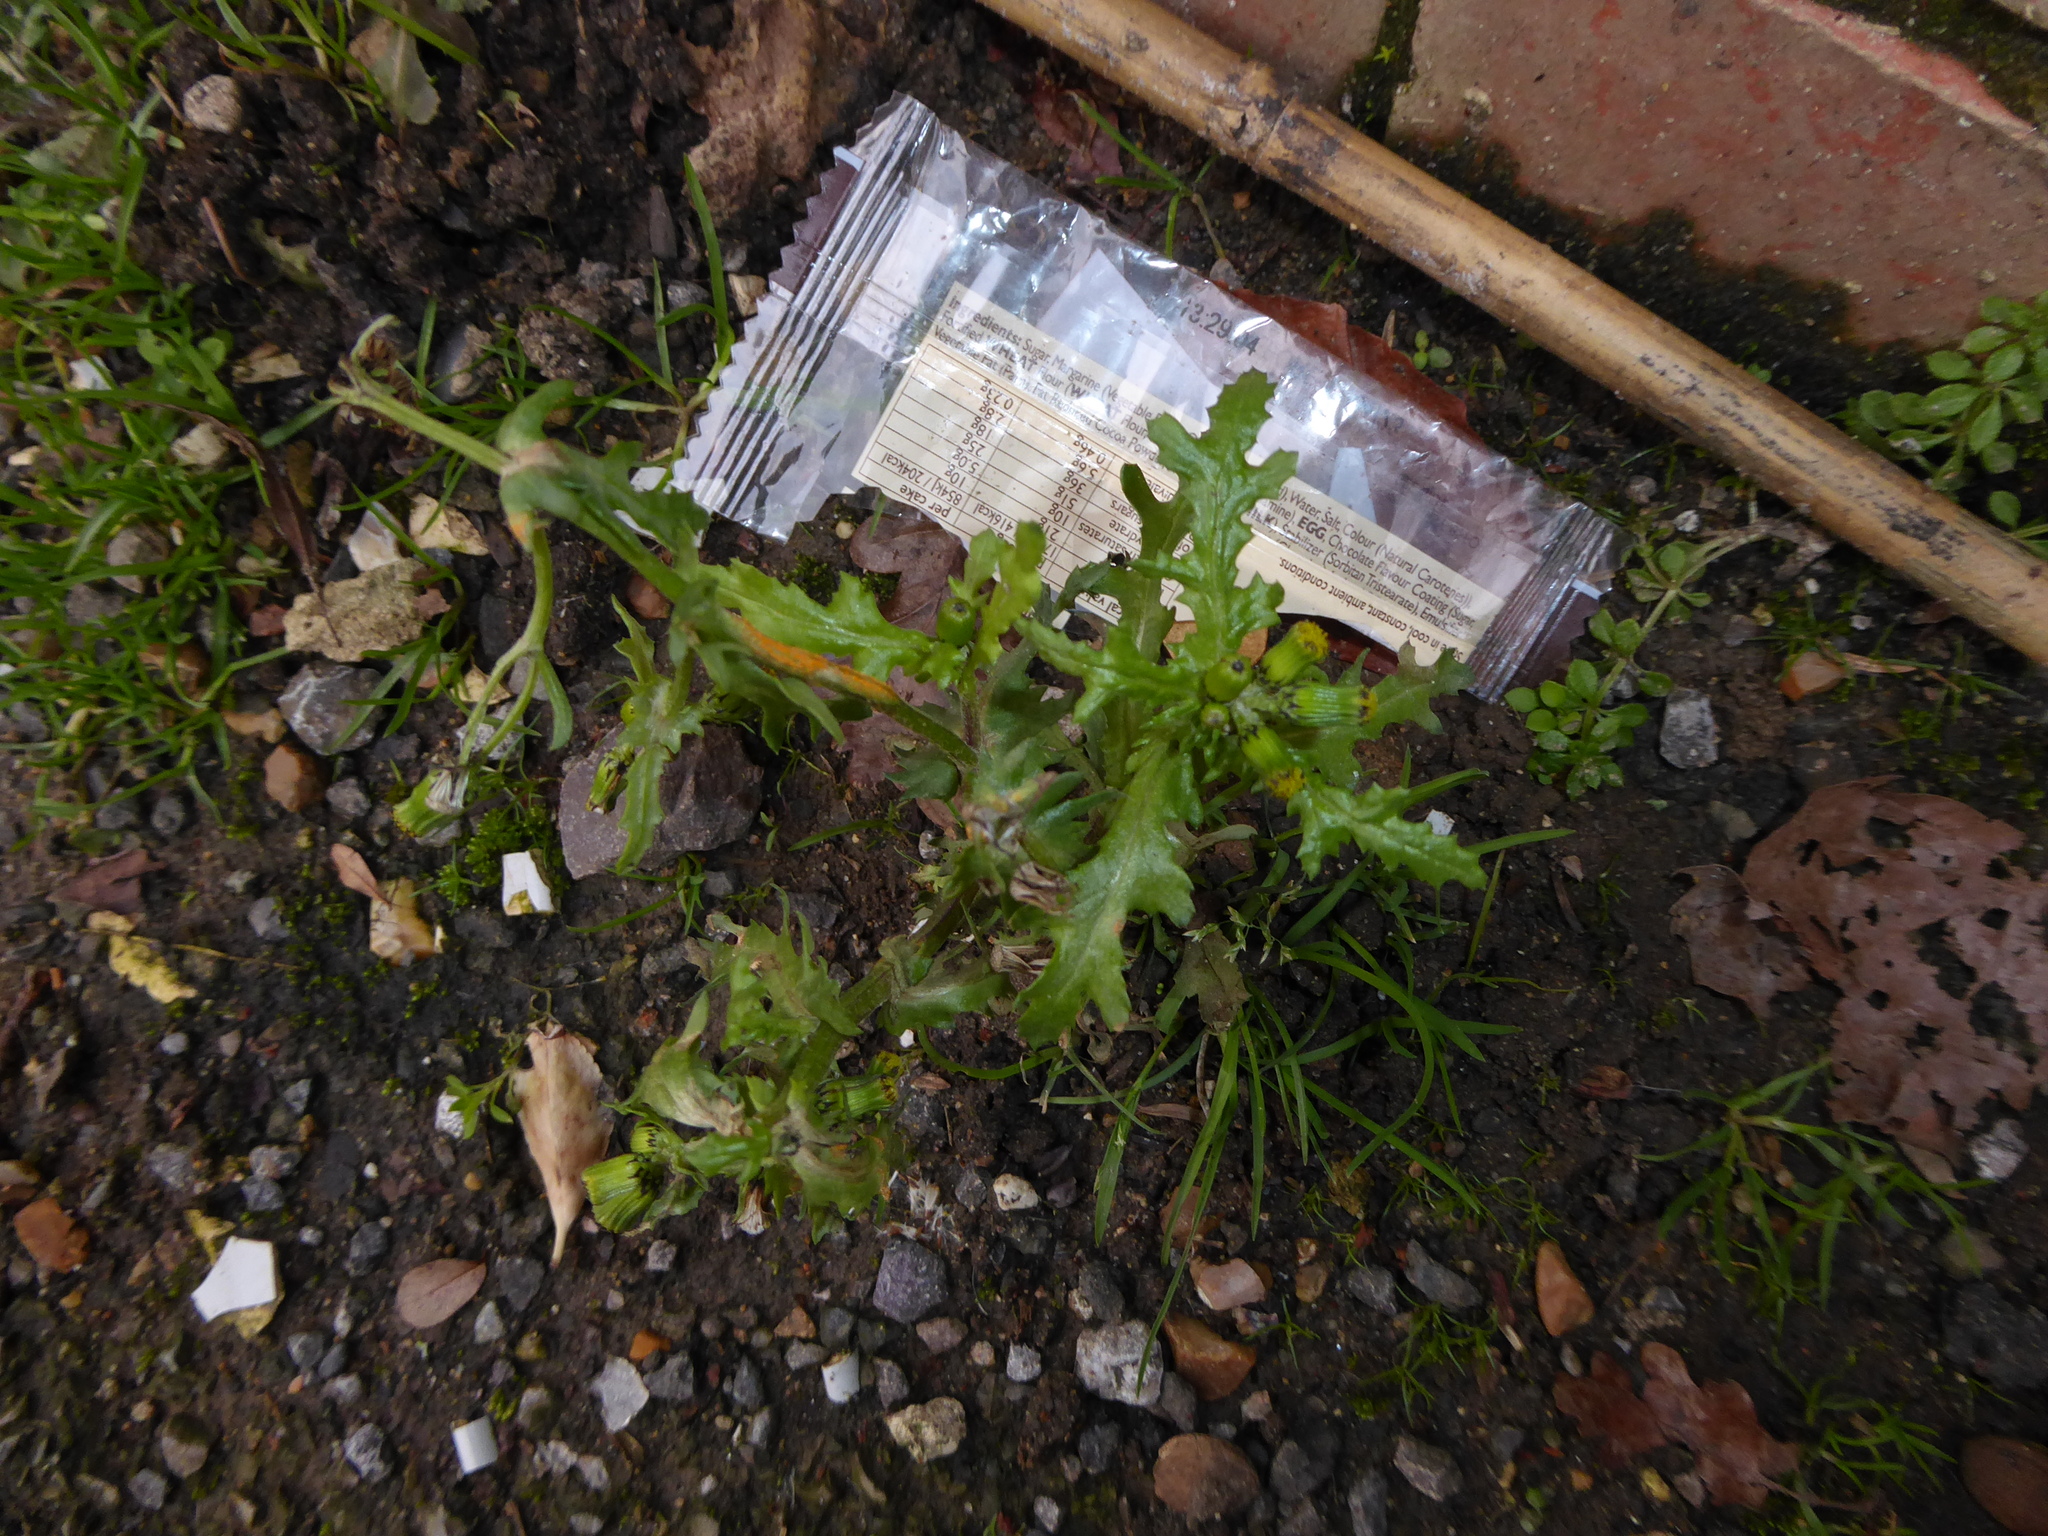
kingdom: Plantae
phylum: Tracheophyta
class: Magnoliopsida
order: Asterales
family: Asteraceae
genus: Senecio
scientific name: Senecio vulgaris
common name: Old-man-in-the-spring
